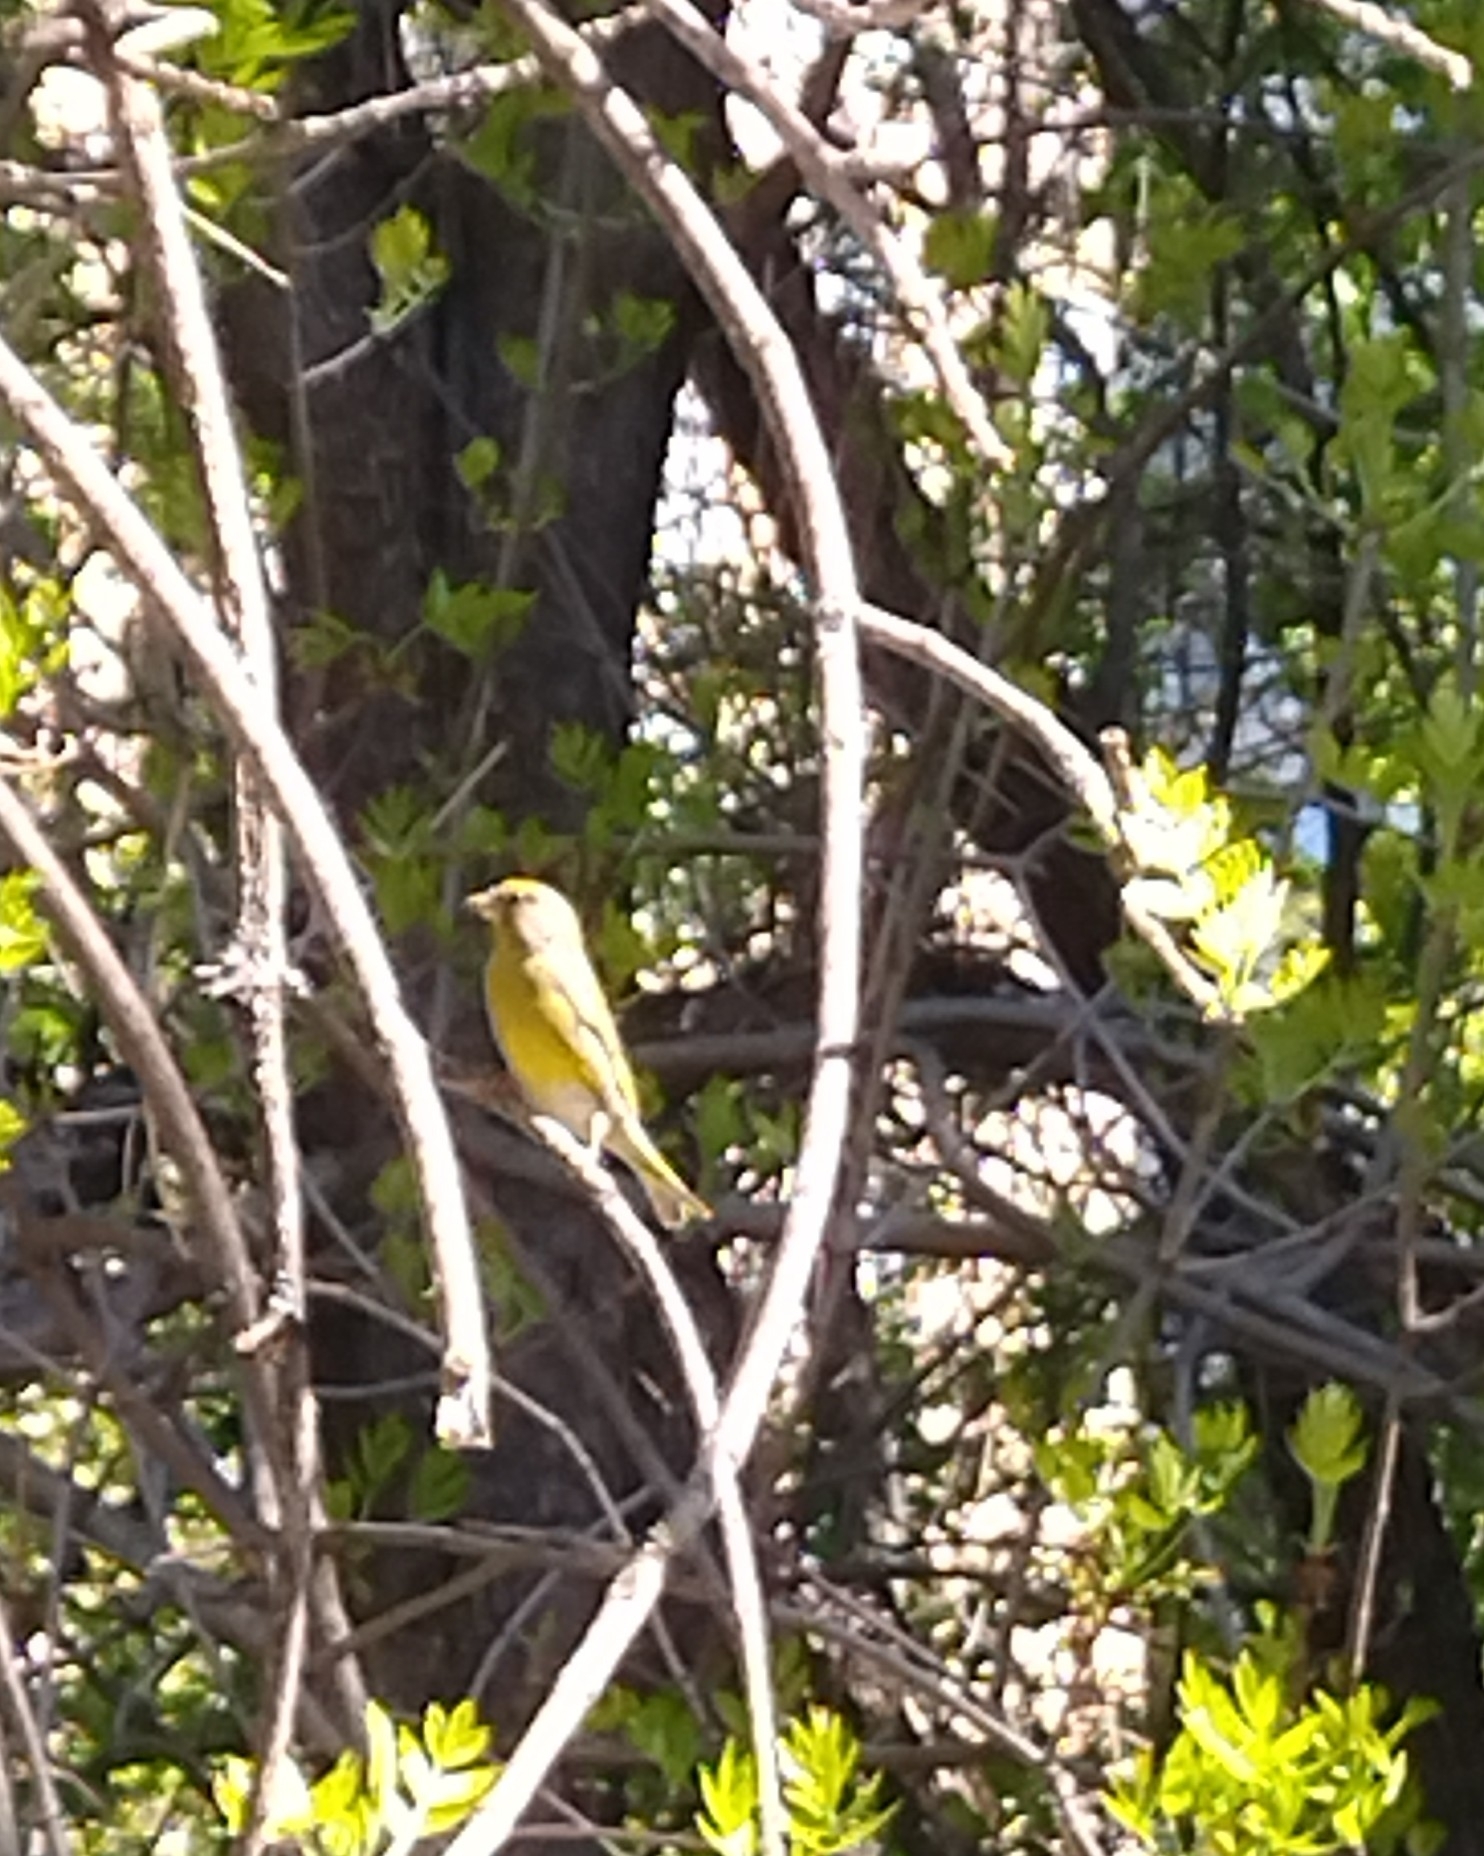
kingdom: Plantae
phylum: Tracheophyta
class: Liliopsida
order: Poales
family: Poaceae
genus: Chloris
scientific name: Chloris chloris
